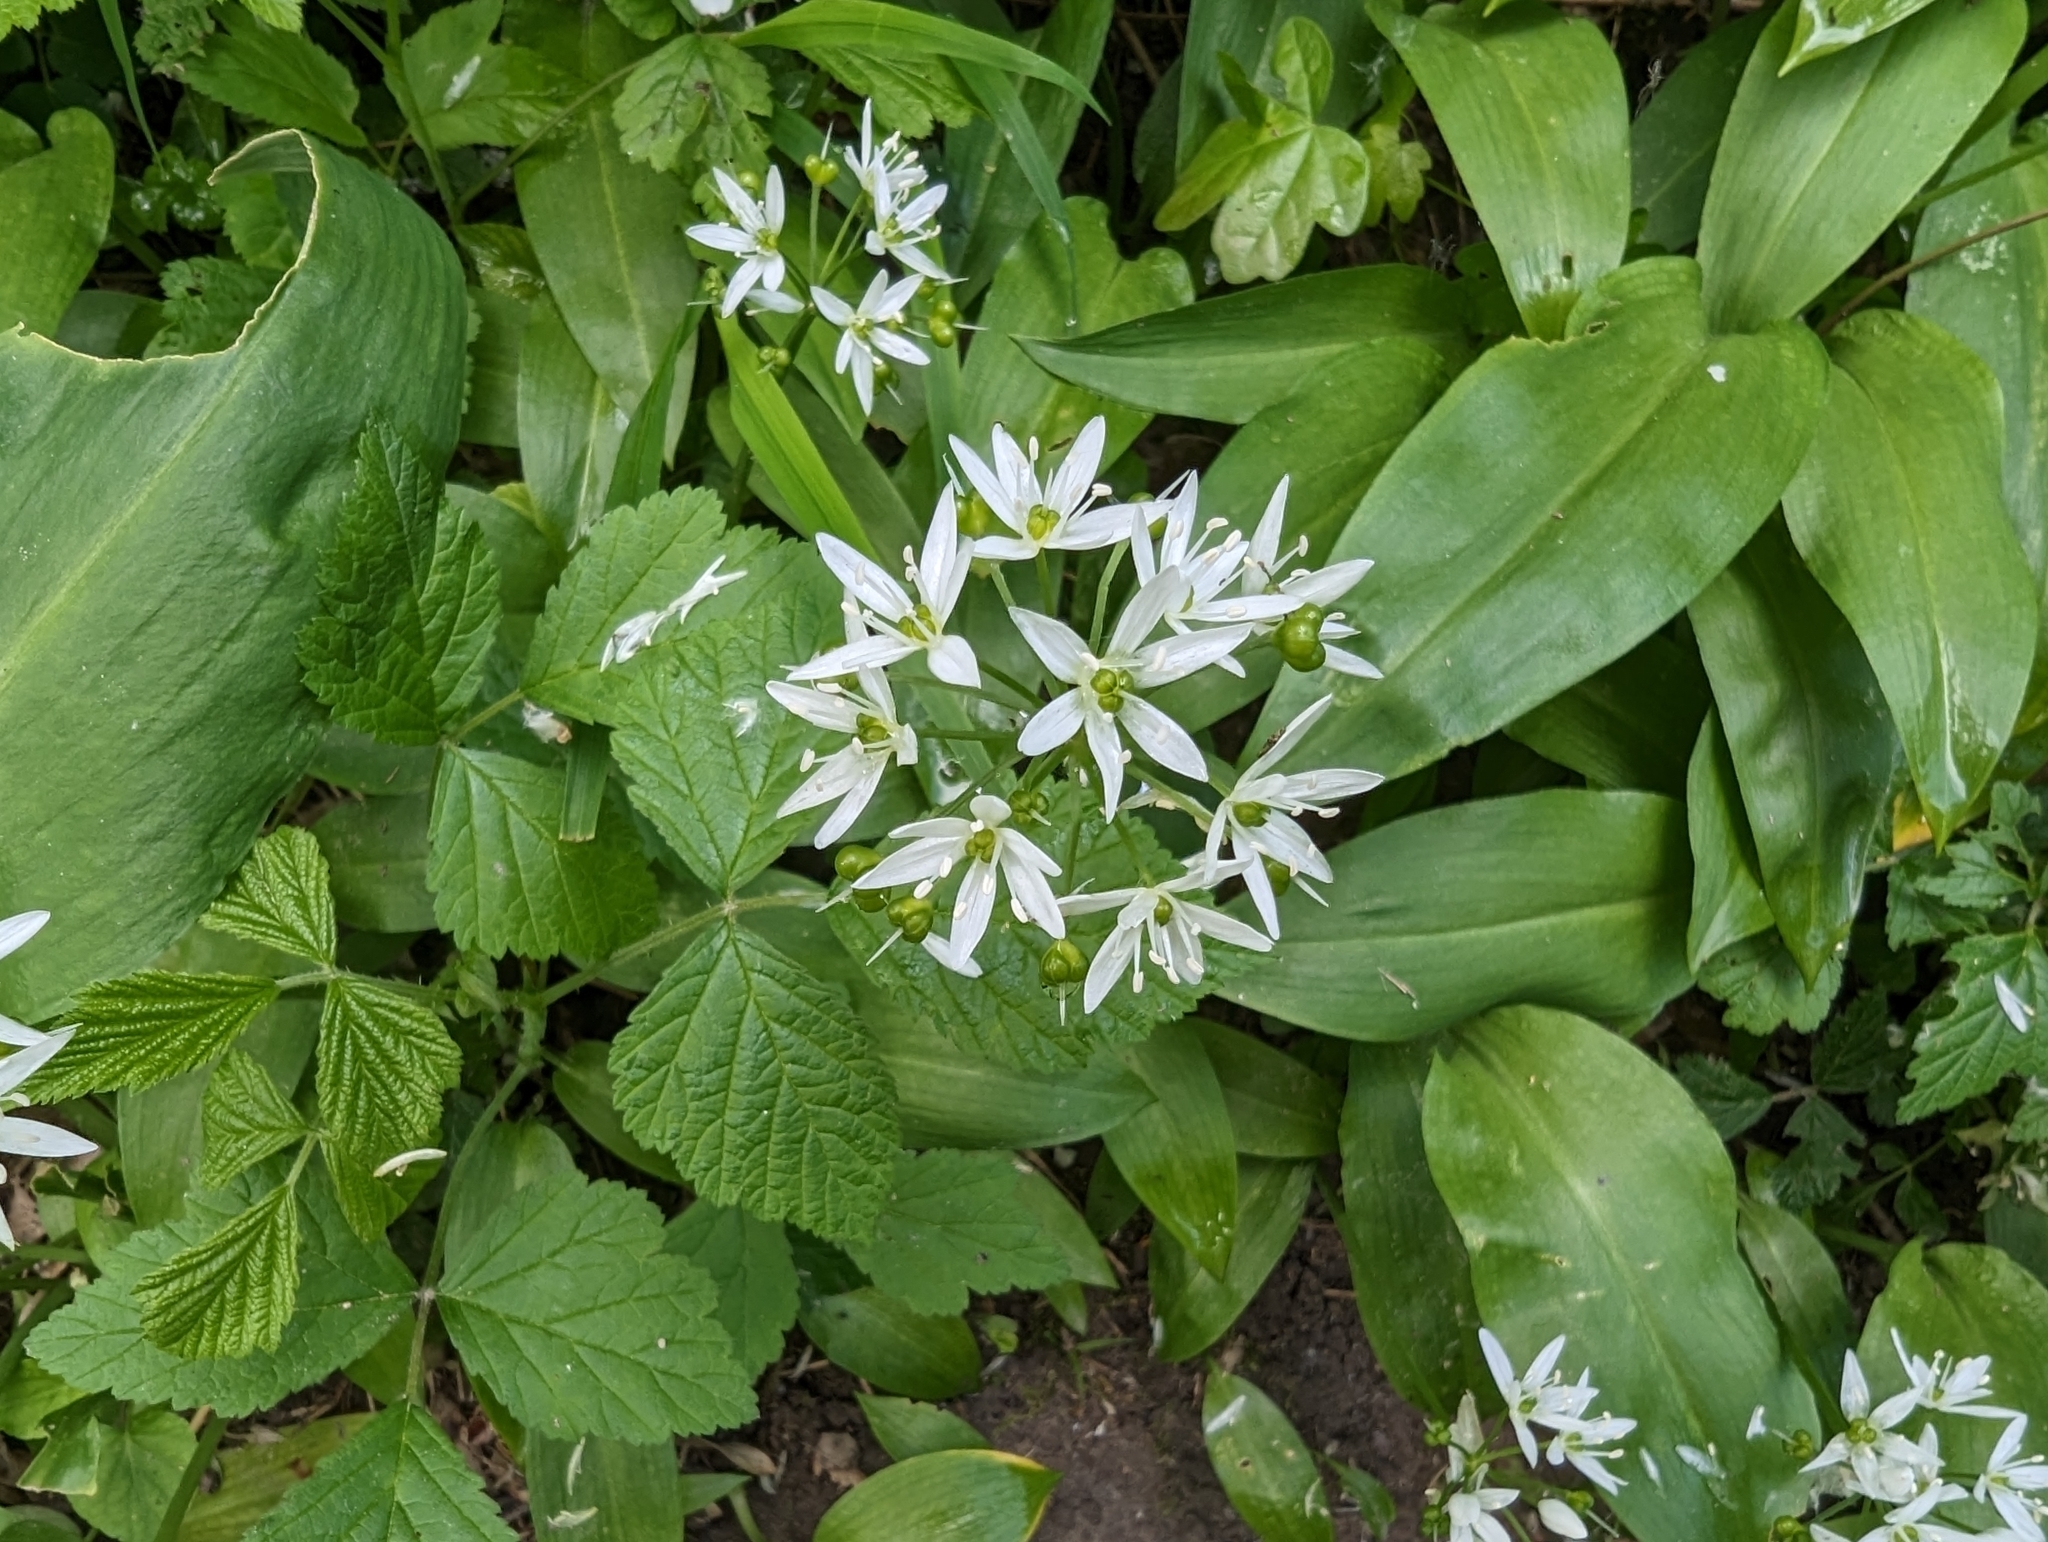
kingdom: Plantae
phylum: Tracheophyta
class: Liliopsida
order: Asparagales
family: Amaryllidaceae
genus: Allium
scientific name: Allium ursinum
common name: Ramsons
